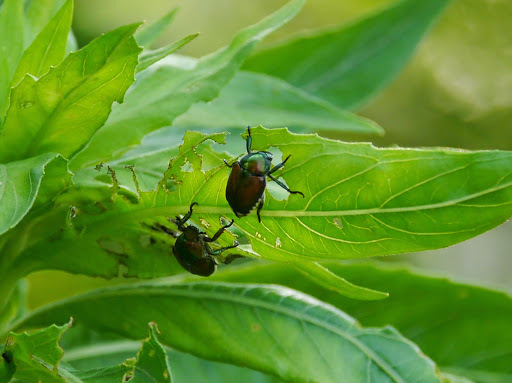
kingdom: Animalia
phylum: Arthropoda
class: Insecta
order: Coleoptera
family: Scarabaeidae
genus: Popillia
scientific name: Popillia japonica
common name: Japanese beetle
